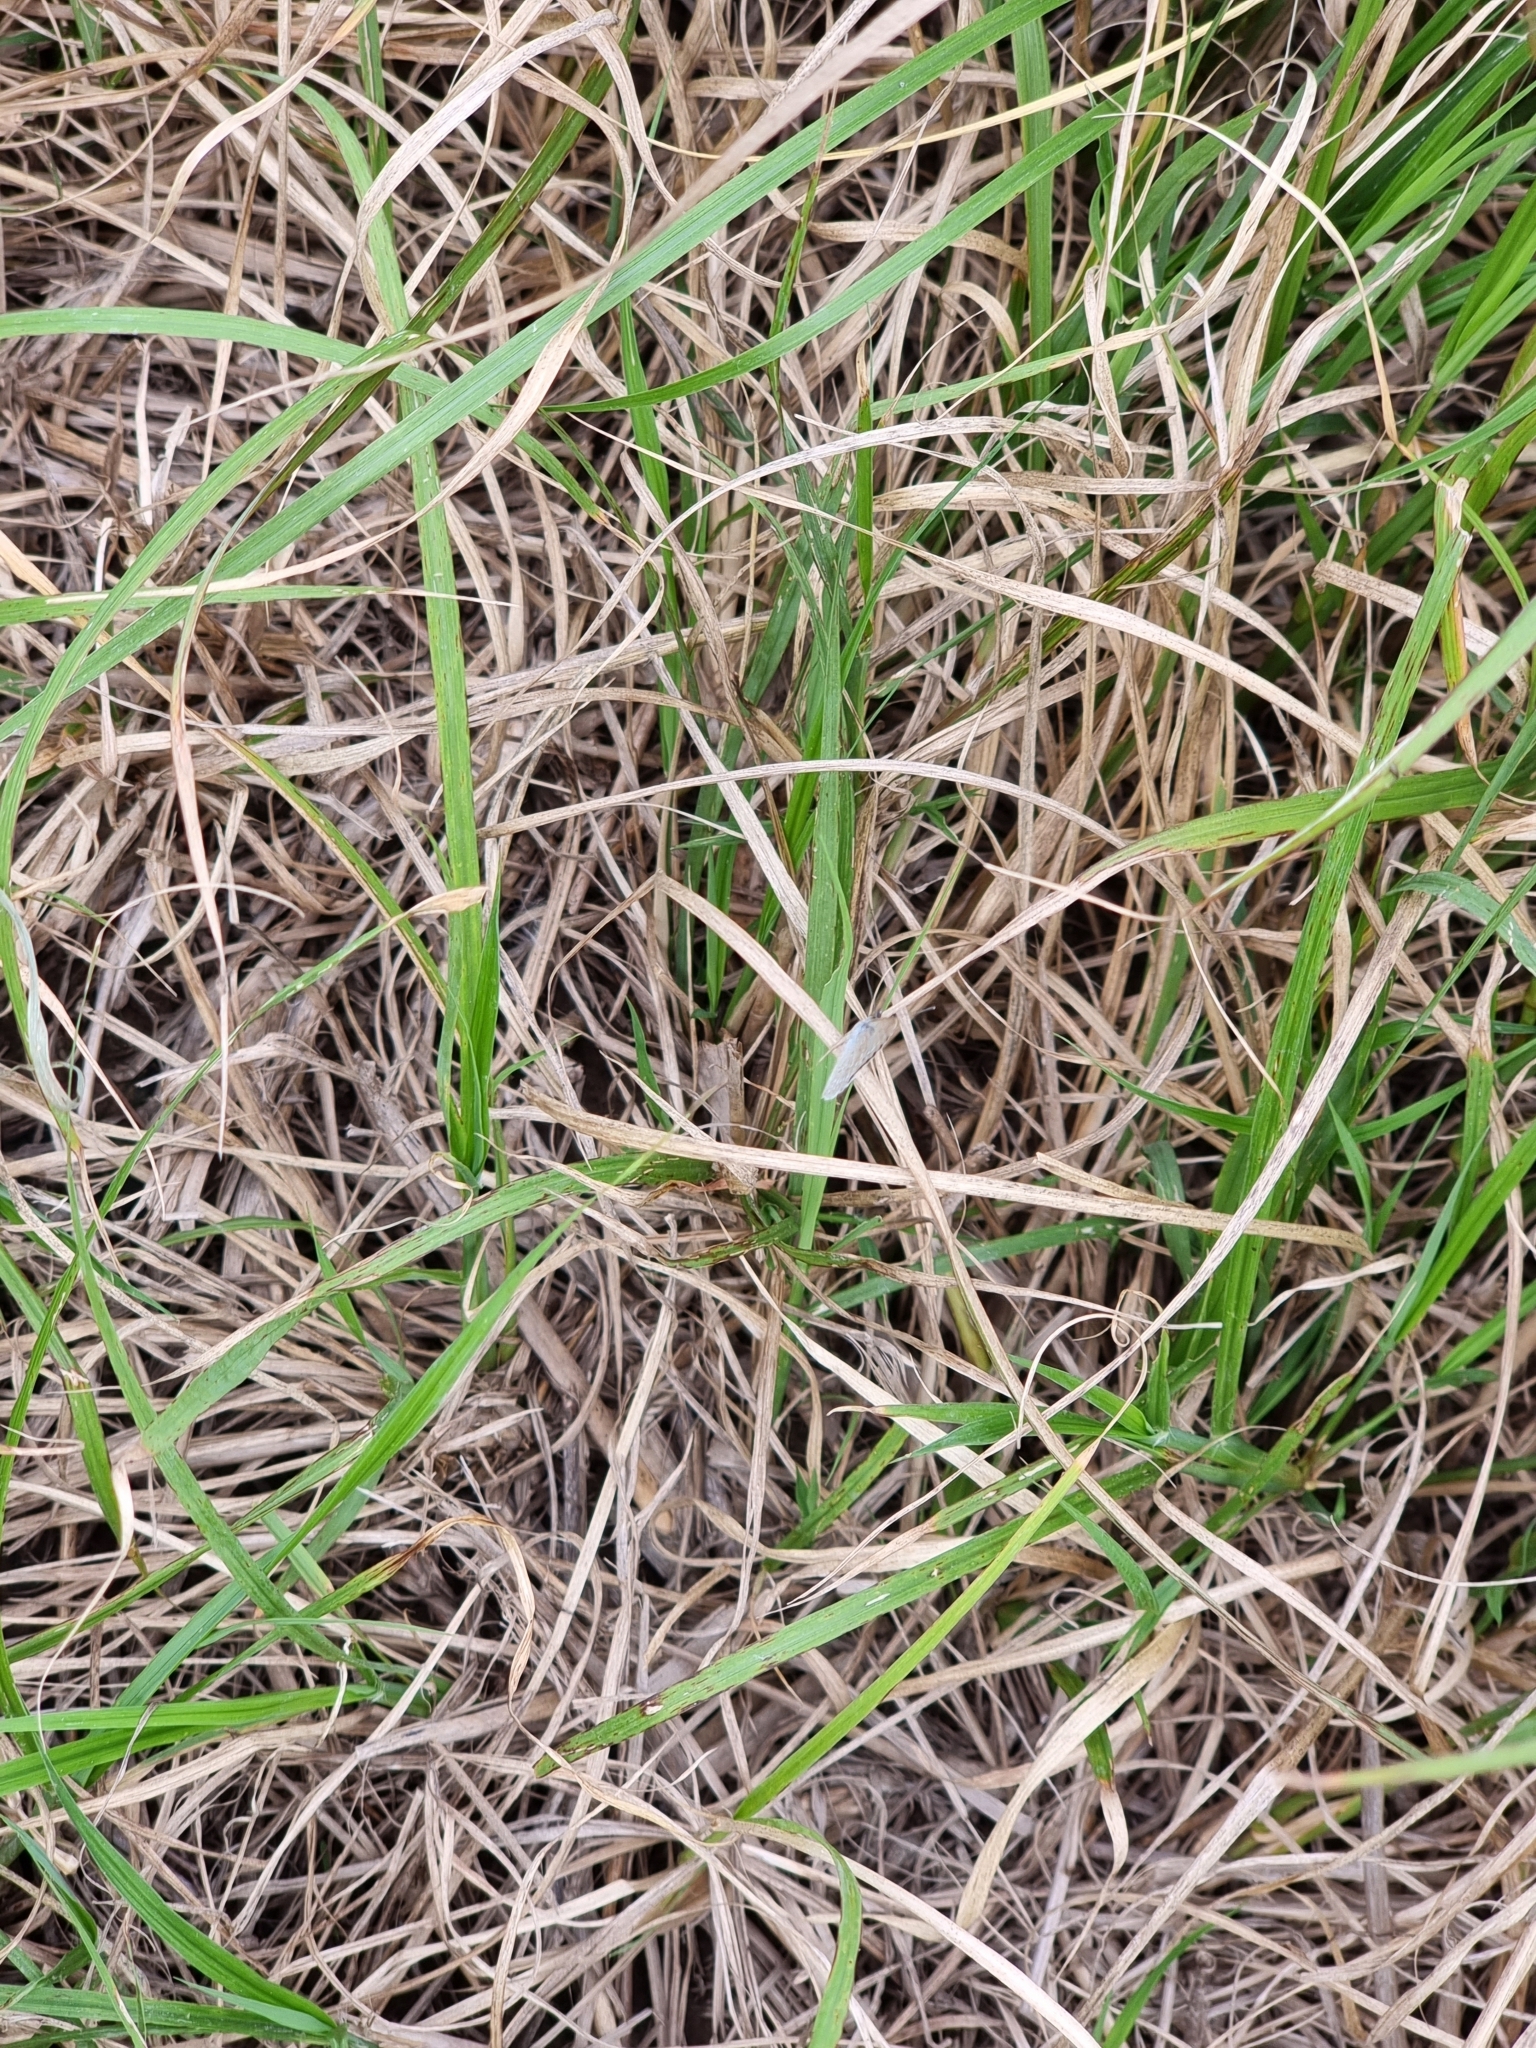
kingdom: Animalia
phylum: Arthropoda
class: Insecta
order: Lepidoptera
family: Lycaenidae
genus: Zizina
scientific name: Zizina labradus
